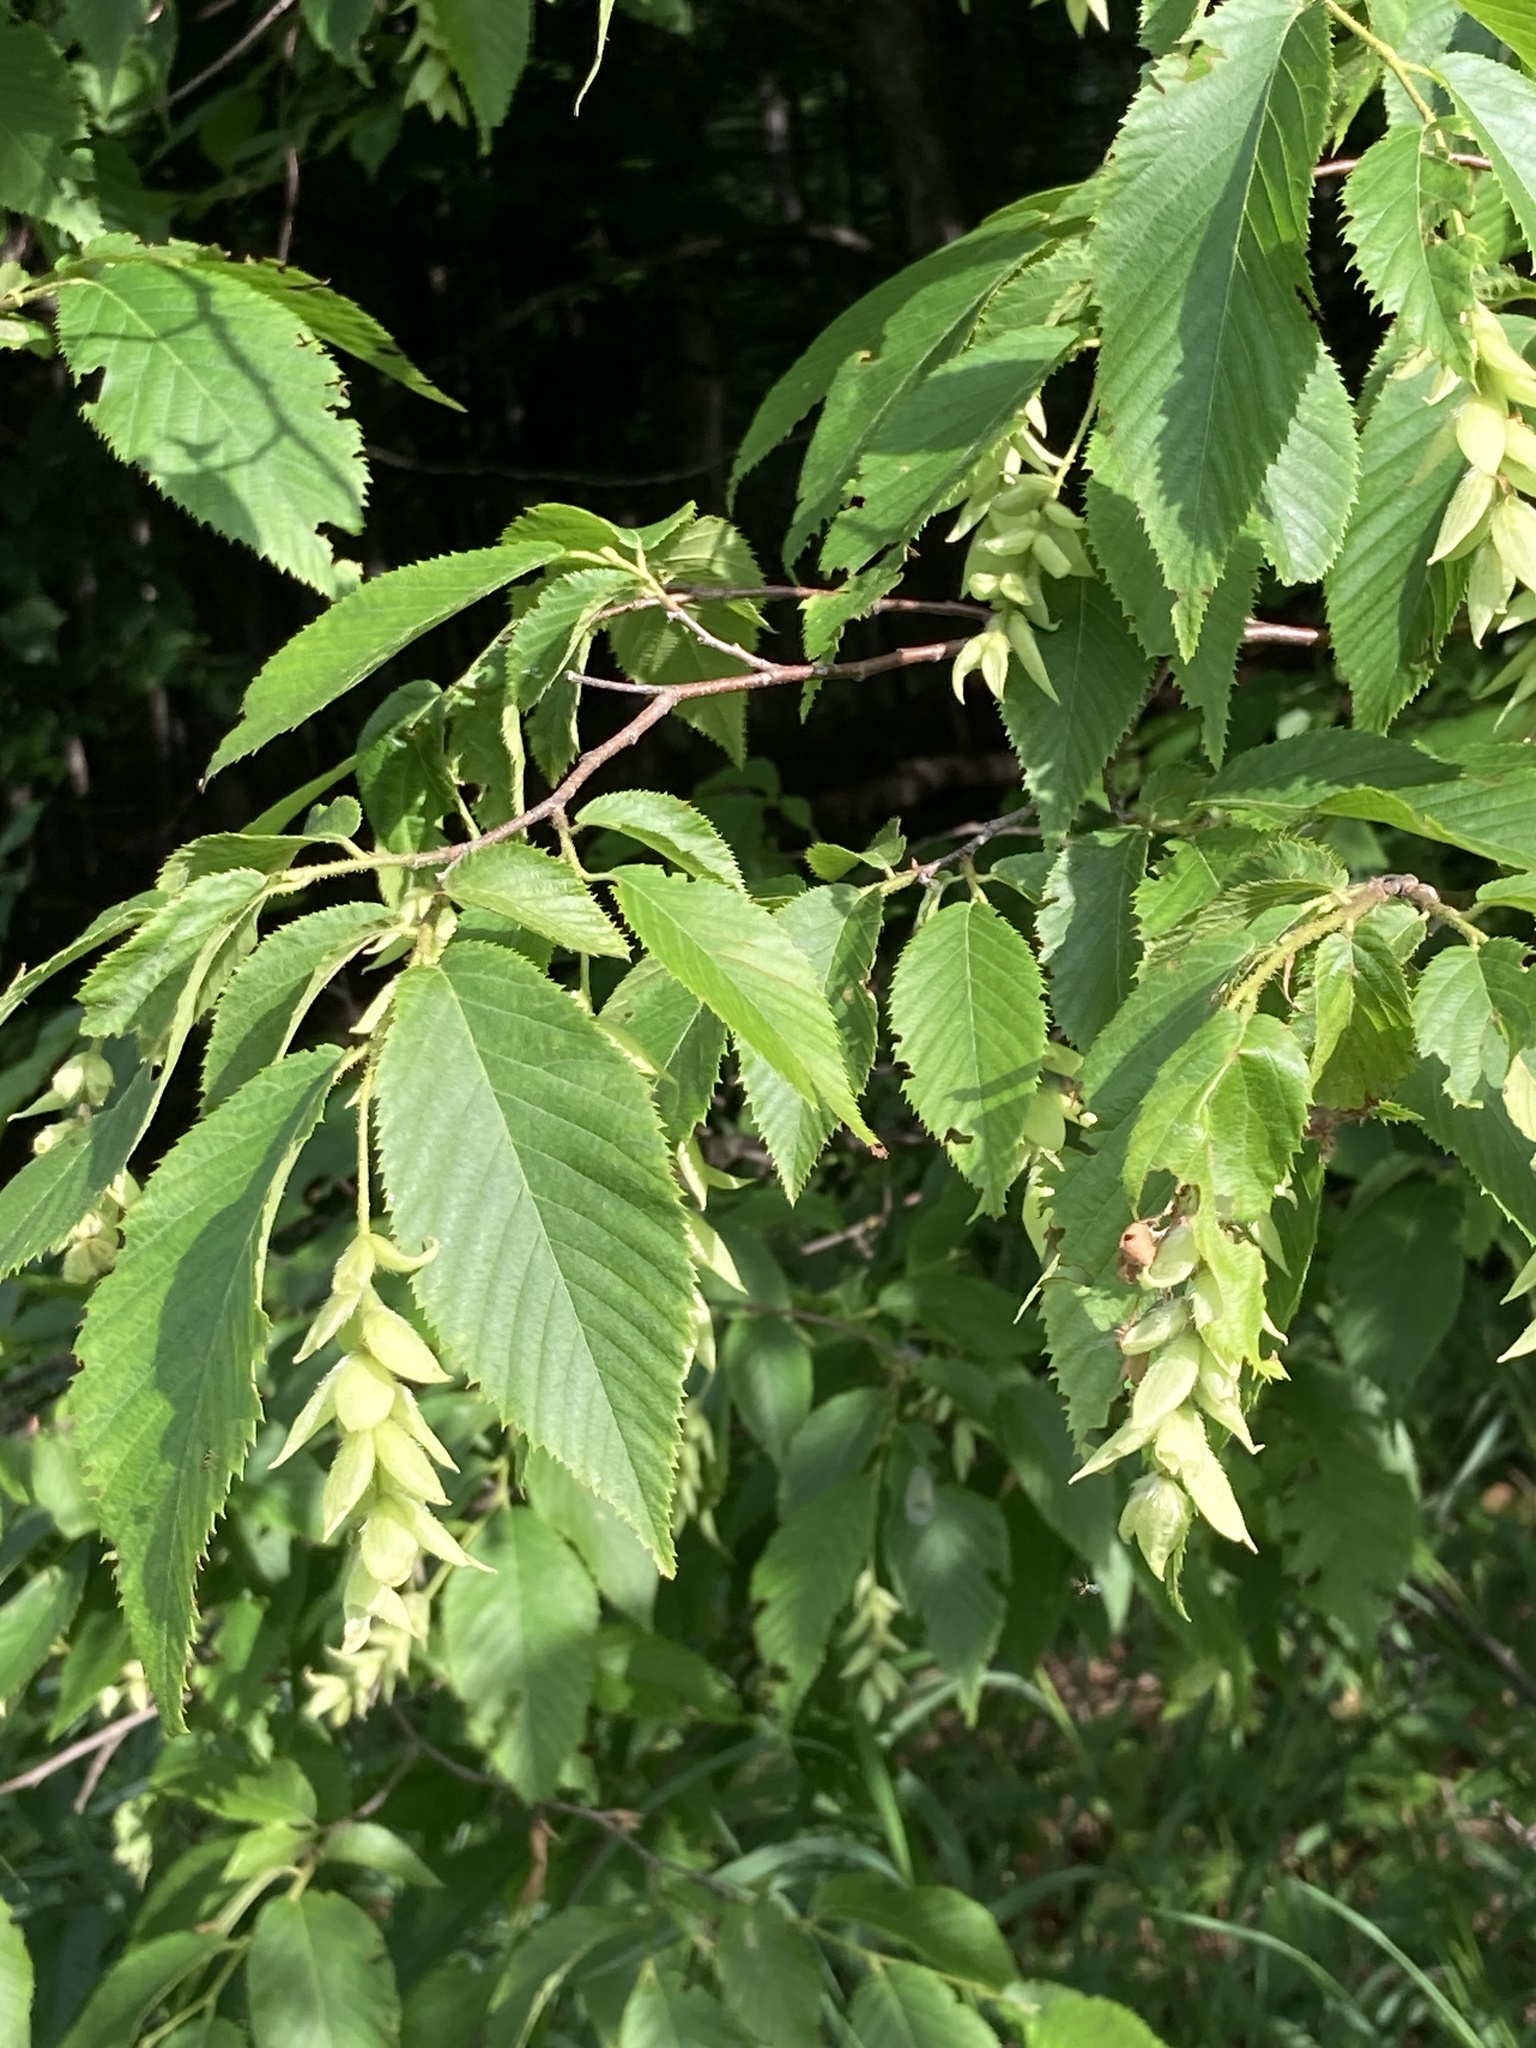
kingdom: Plantae
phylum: Tracheophyta
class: Magnoliopsida
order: Fagales
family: Betulaceae
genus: Ostrya
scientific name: Ostrya virginiana
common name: Ironwood
